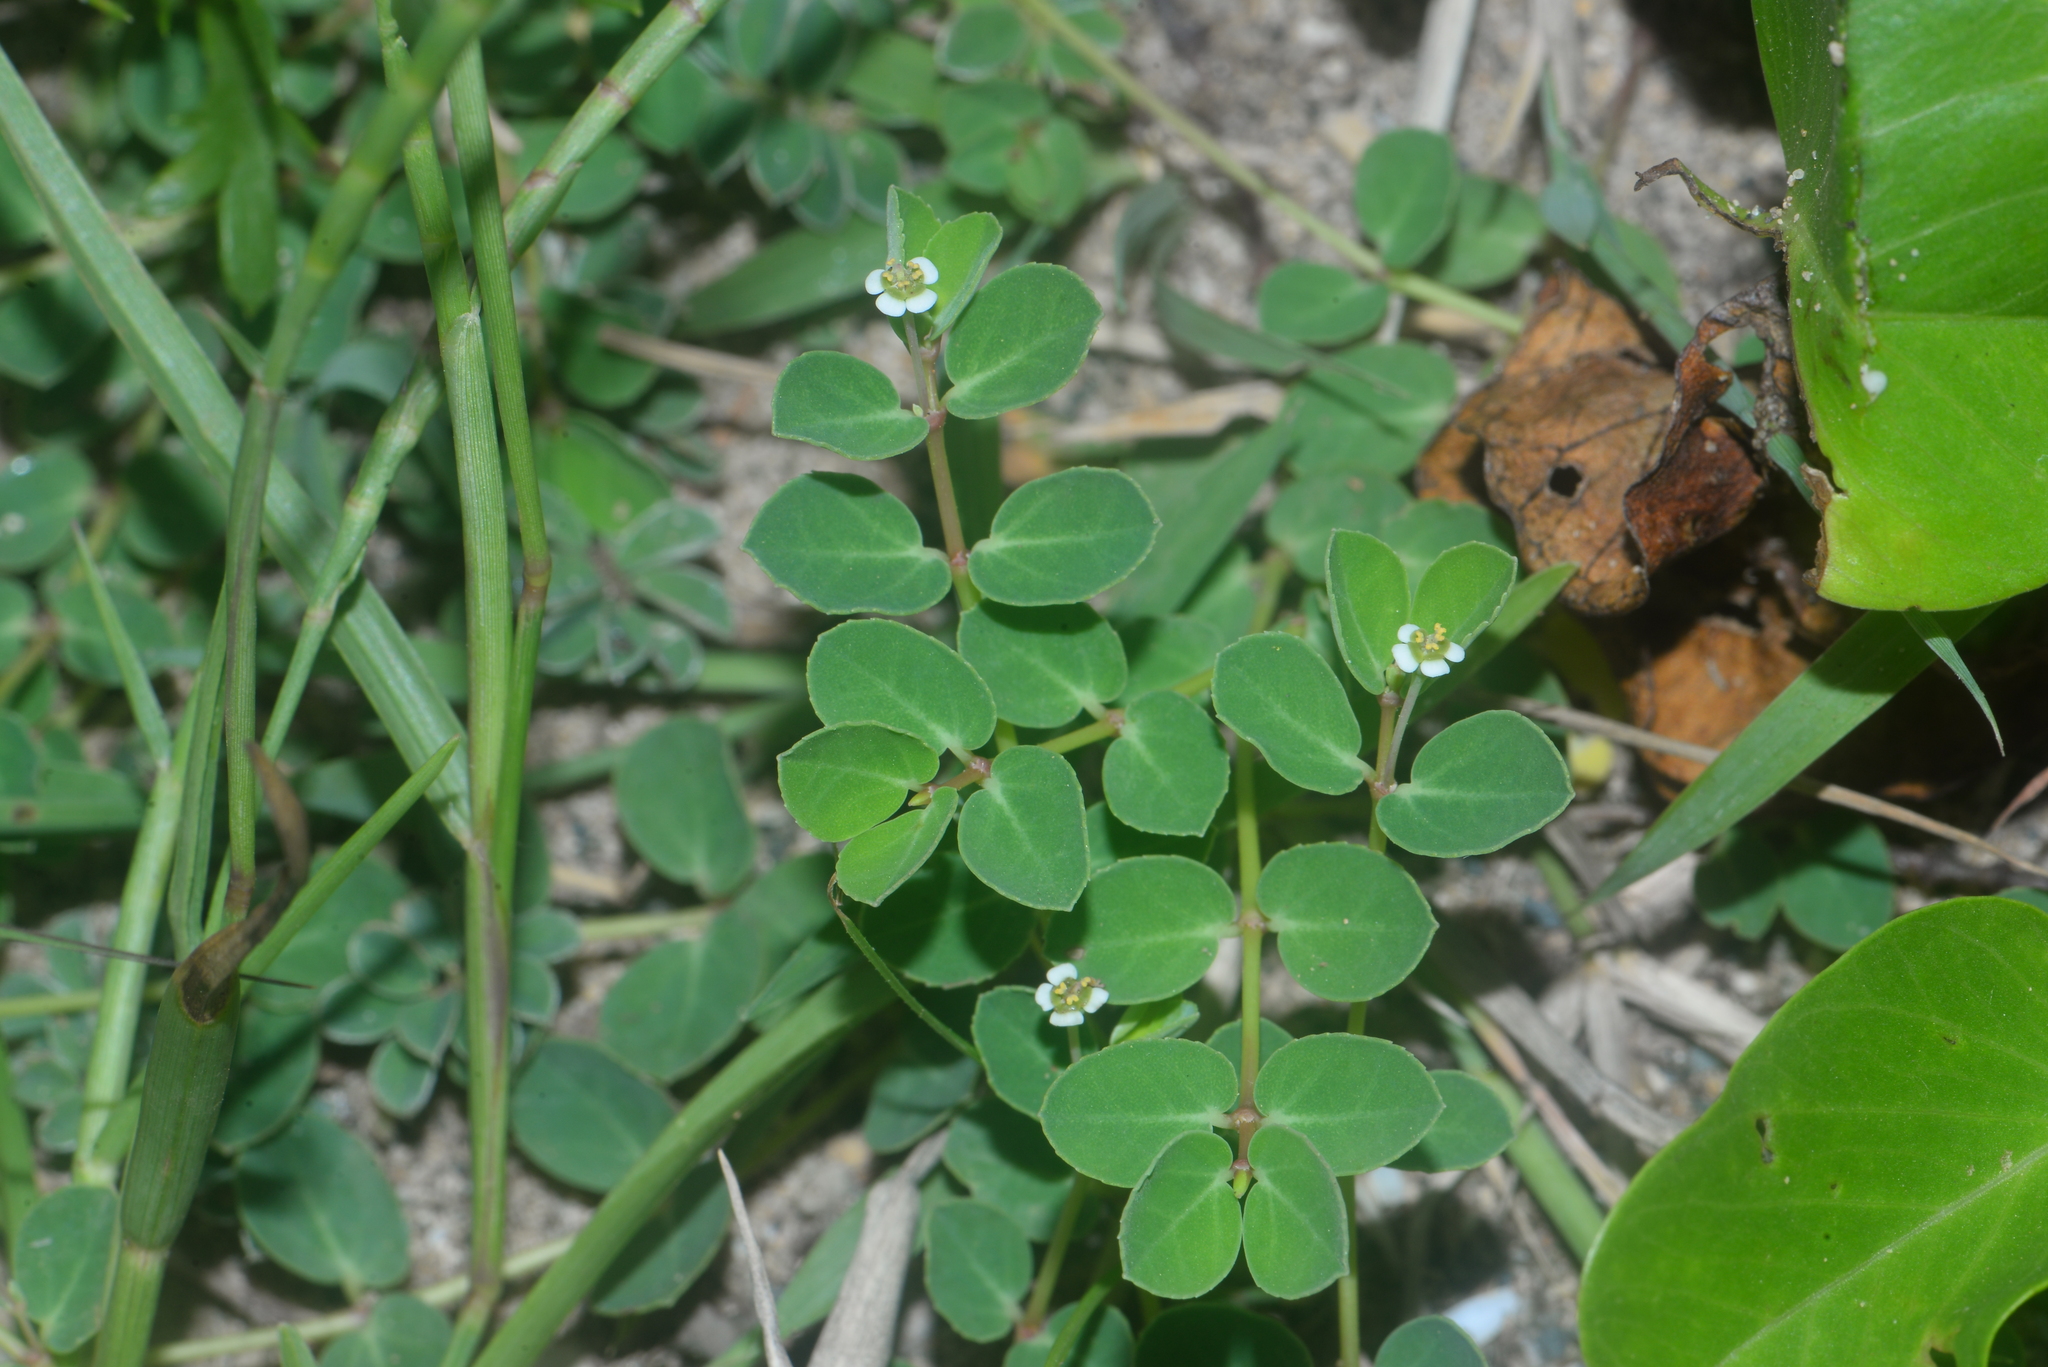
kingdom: Plantae
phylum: Tracheophyta
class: Magnoliopsida
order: Malpighiales
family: Euphorbiaceae
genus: Euphorbia
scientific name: Euphorbia garanbiensis
